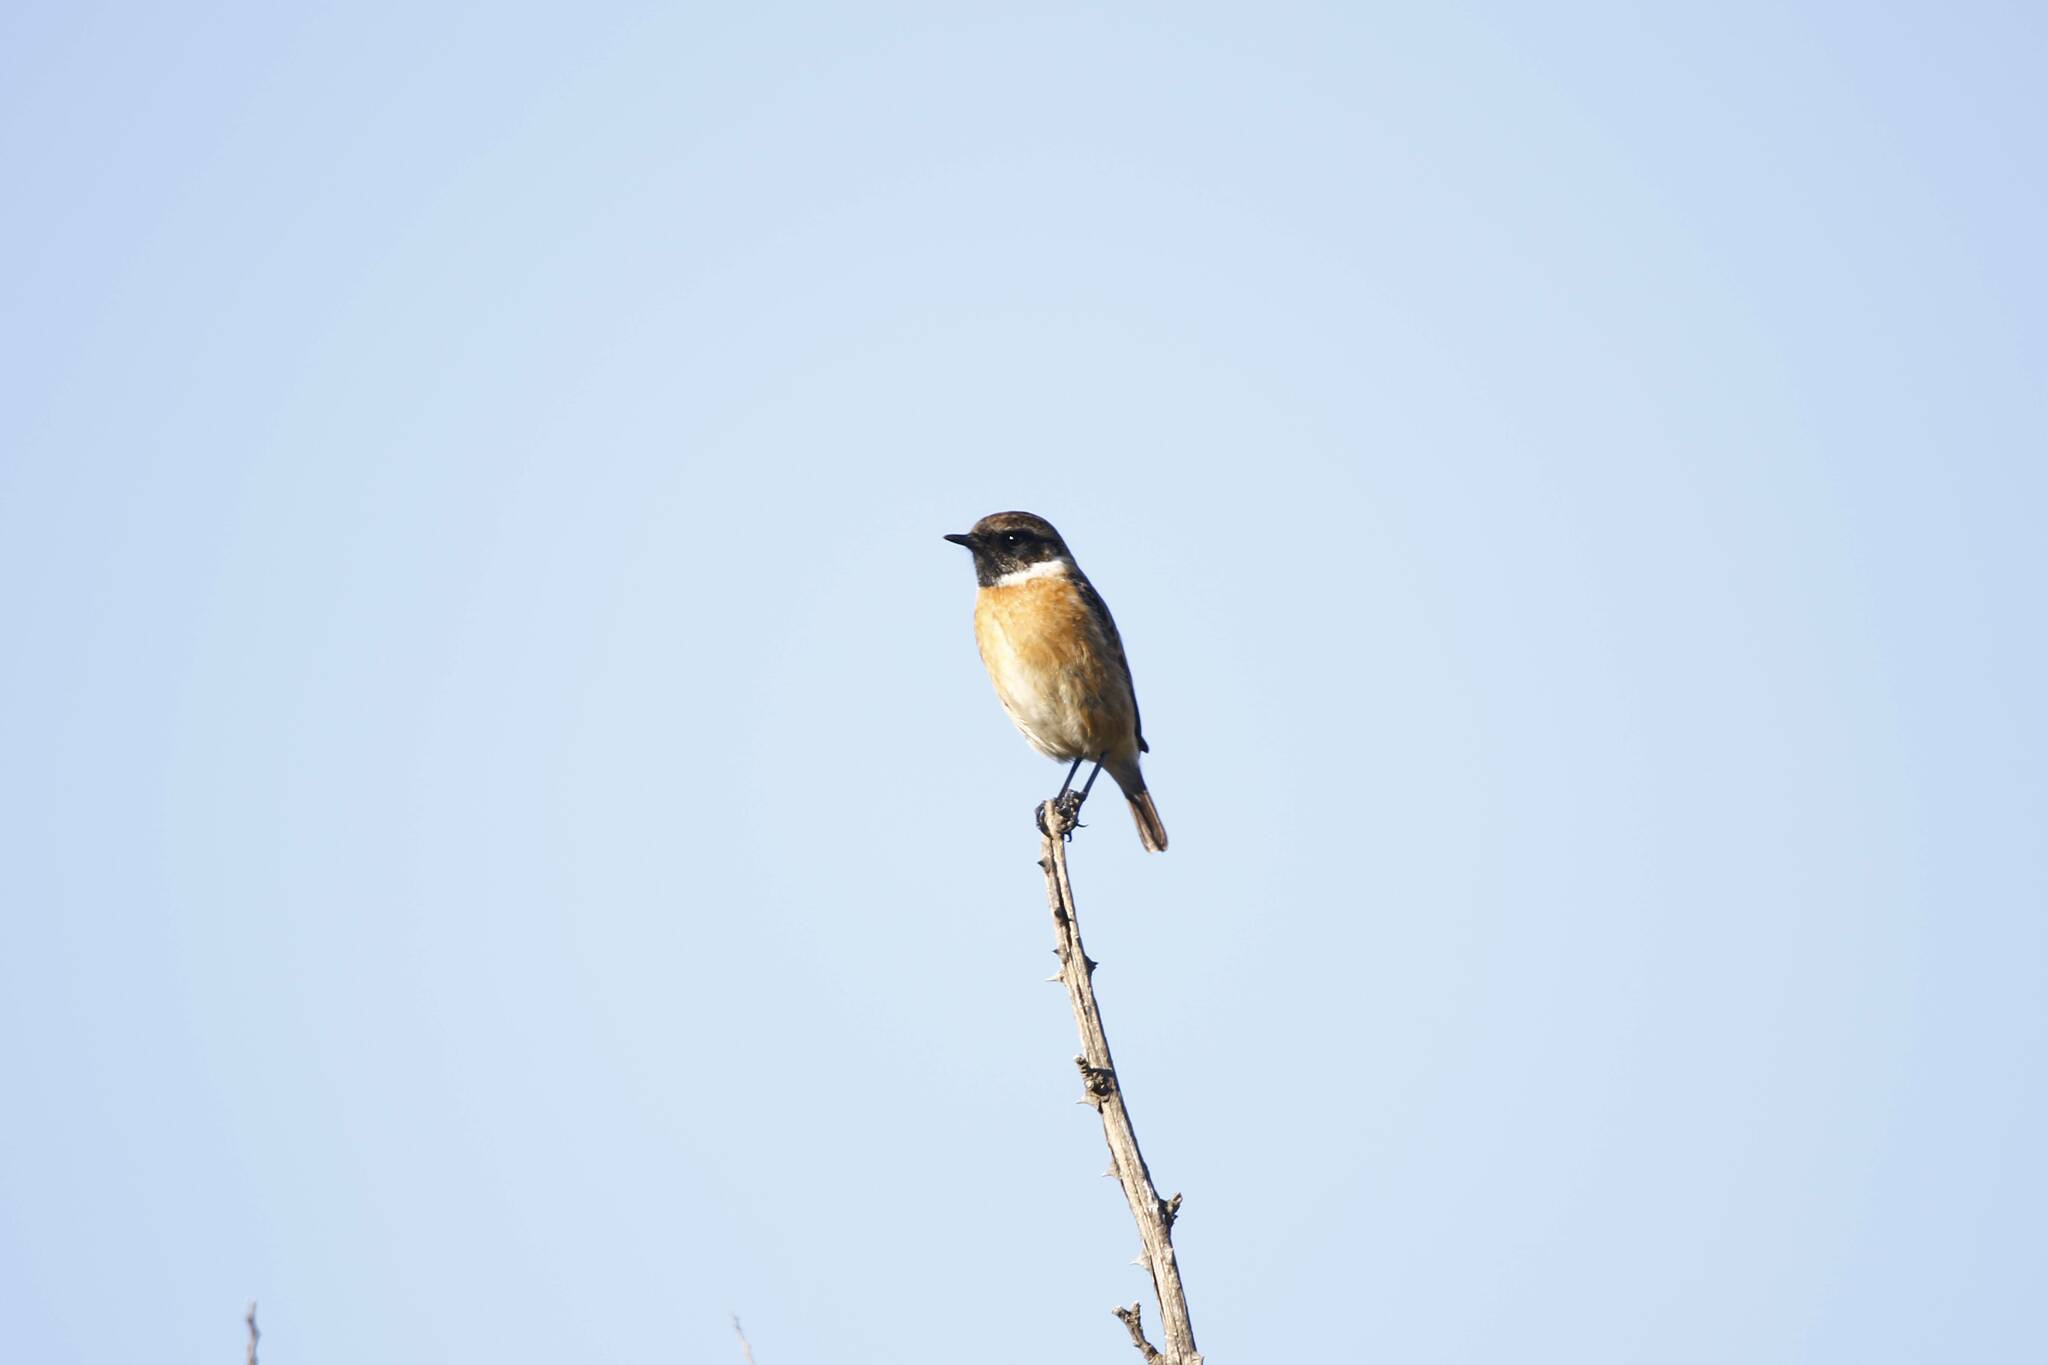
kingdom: Animalia
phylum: Chordata
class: Aves
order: Passeriformes
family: Muscicapidae
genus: Saxicola
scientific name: Saxicola rubicola
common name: European stonechat
